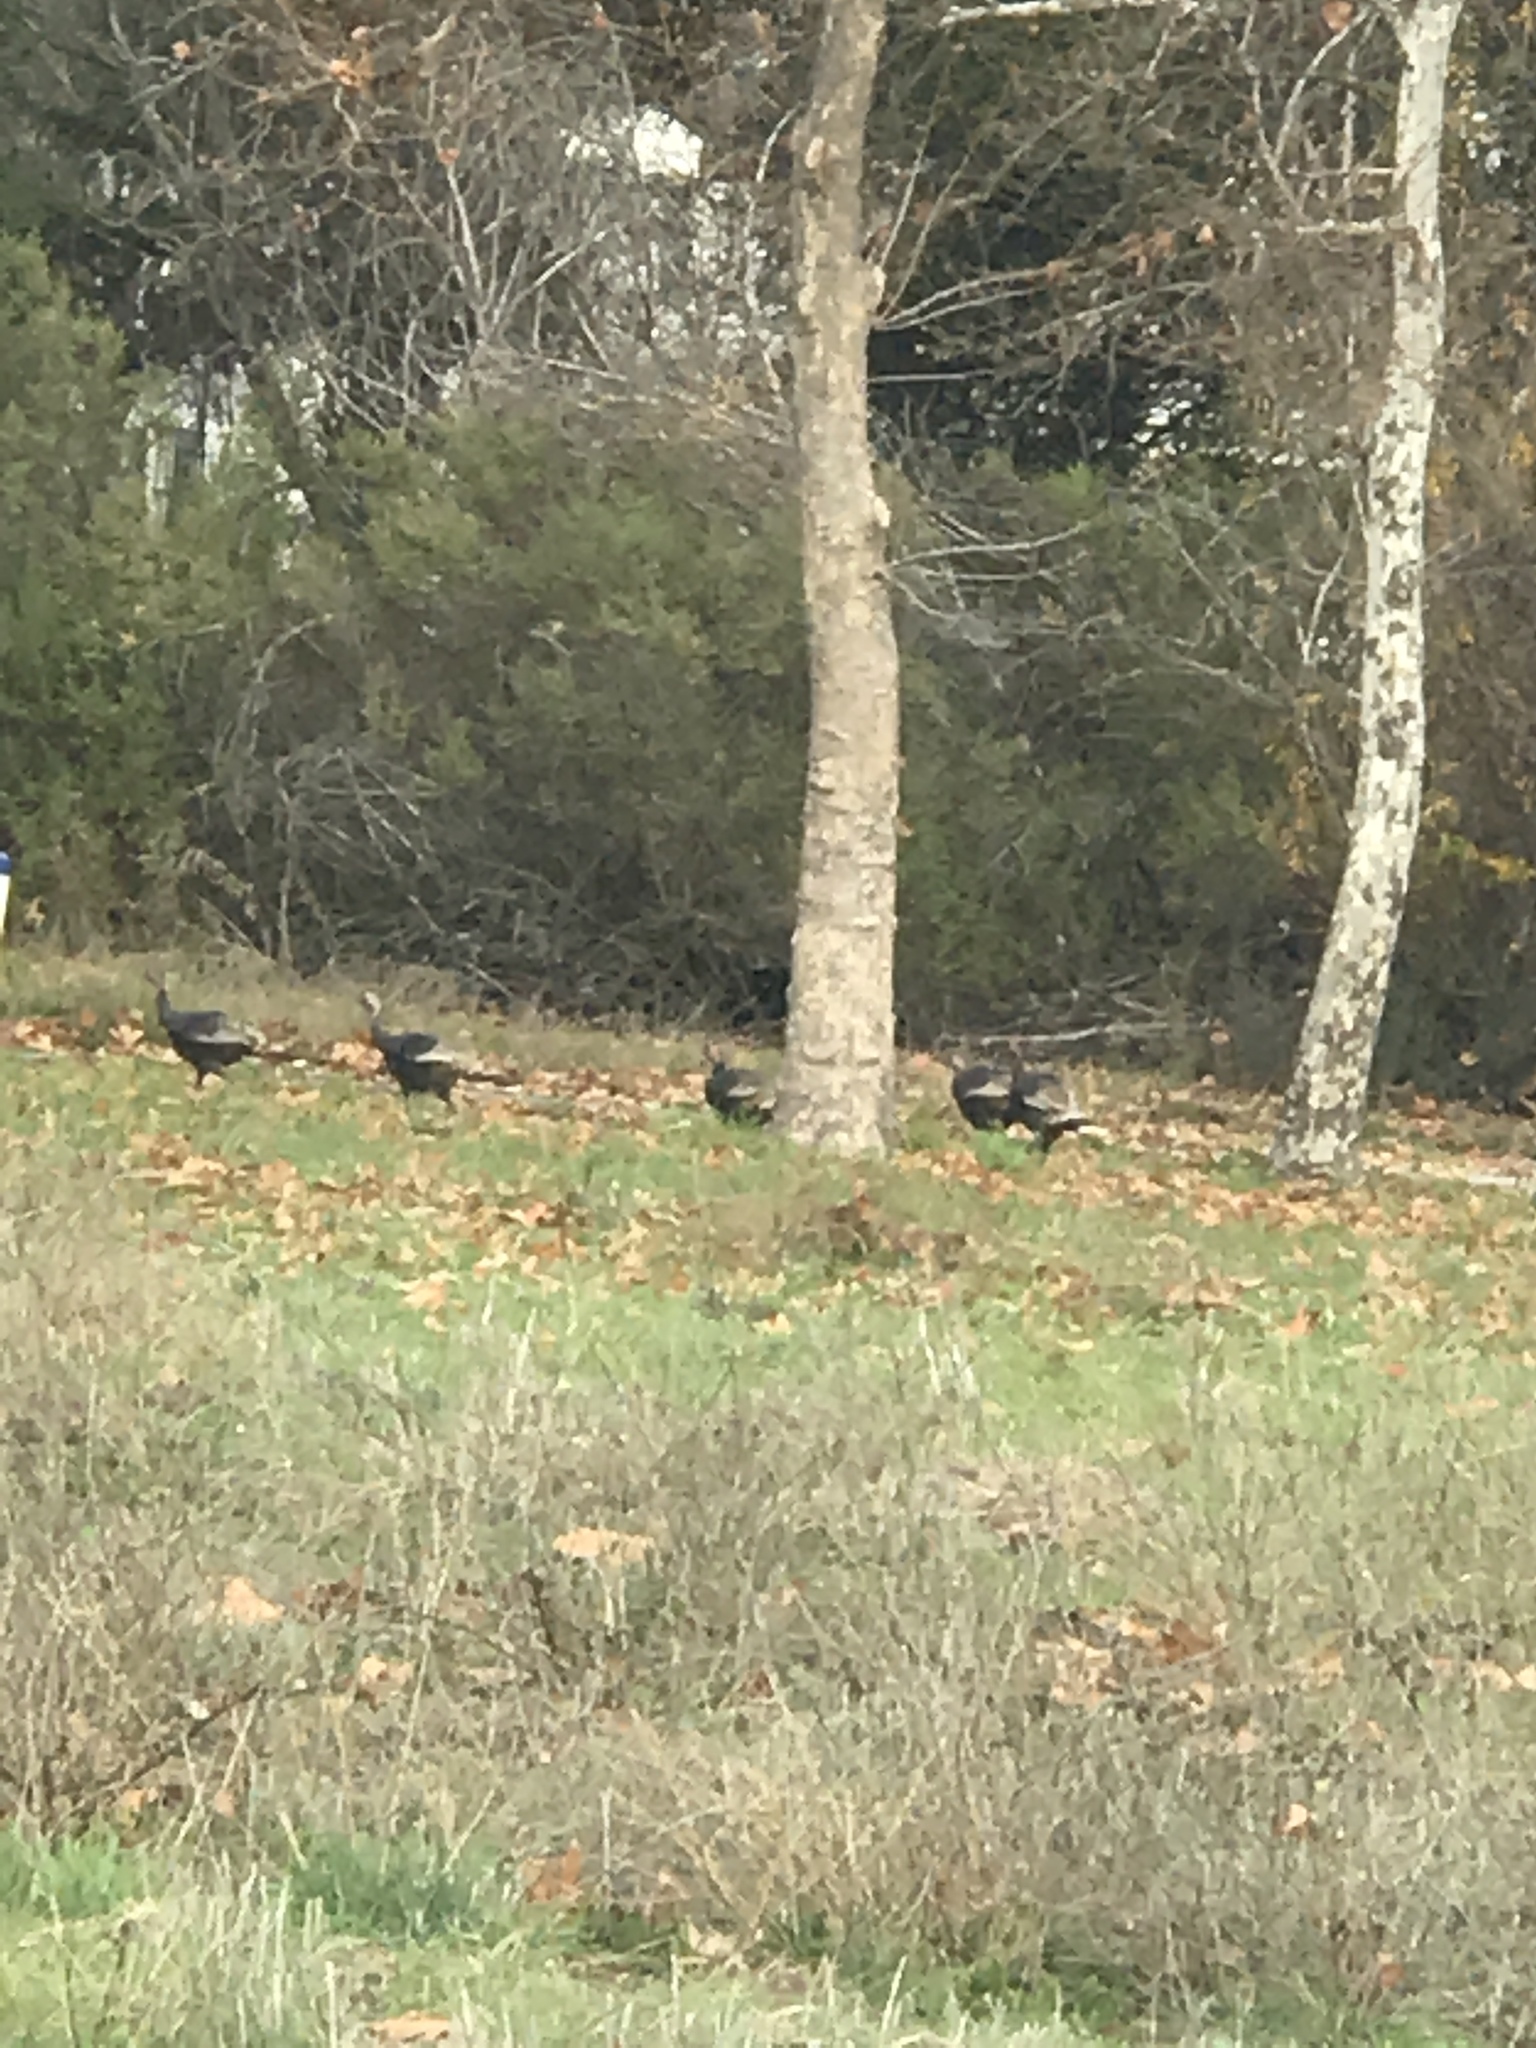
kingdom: Animalia
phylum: Chordata
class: Aves
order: Galliformes
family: Phasianidae
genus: Meleagris
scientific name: Meleagris gallopavo
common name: Wild turkey
